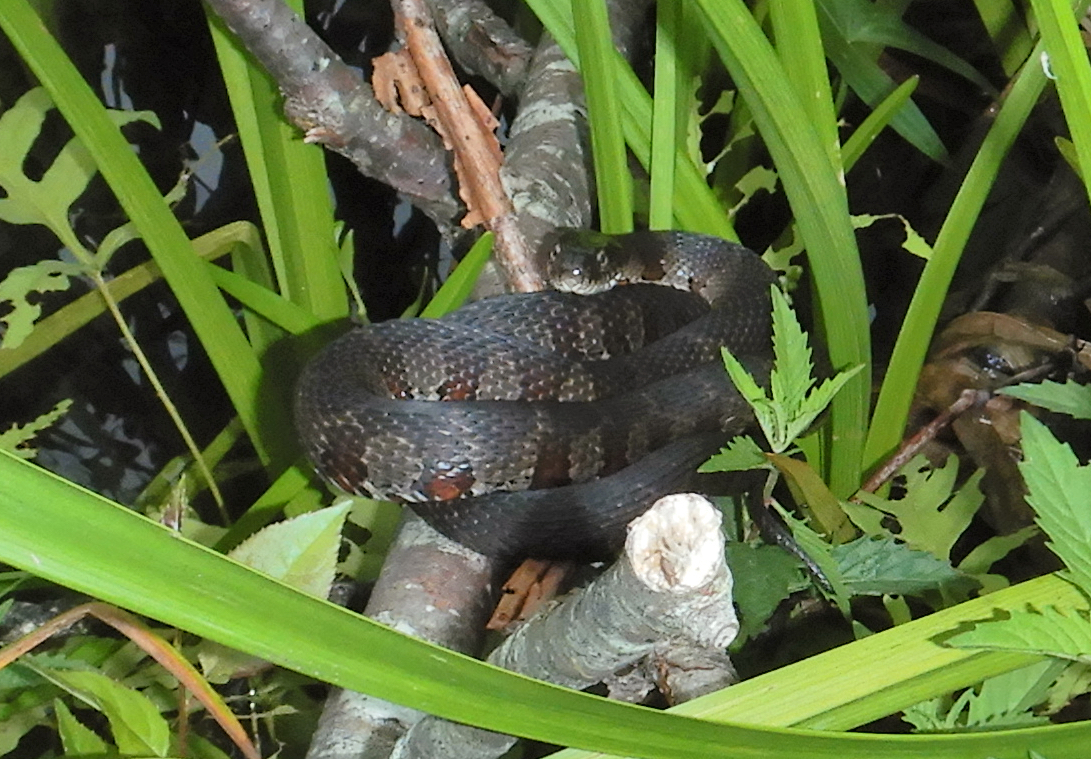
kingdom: Animalia
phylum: Chordata
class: Squamata
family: Colubridae
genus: Nerodia
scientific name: Nerodia sipedon
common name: Northern water snake
